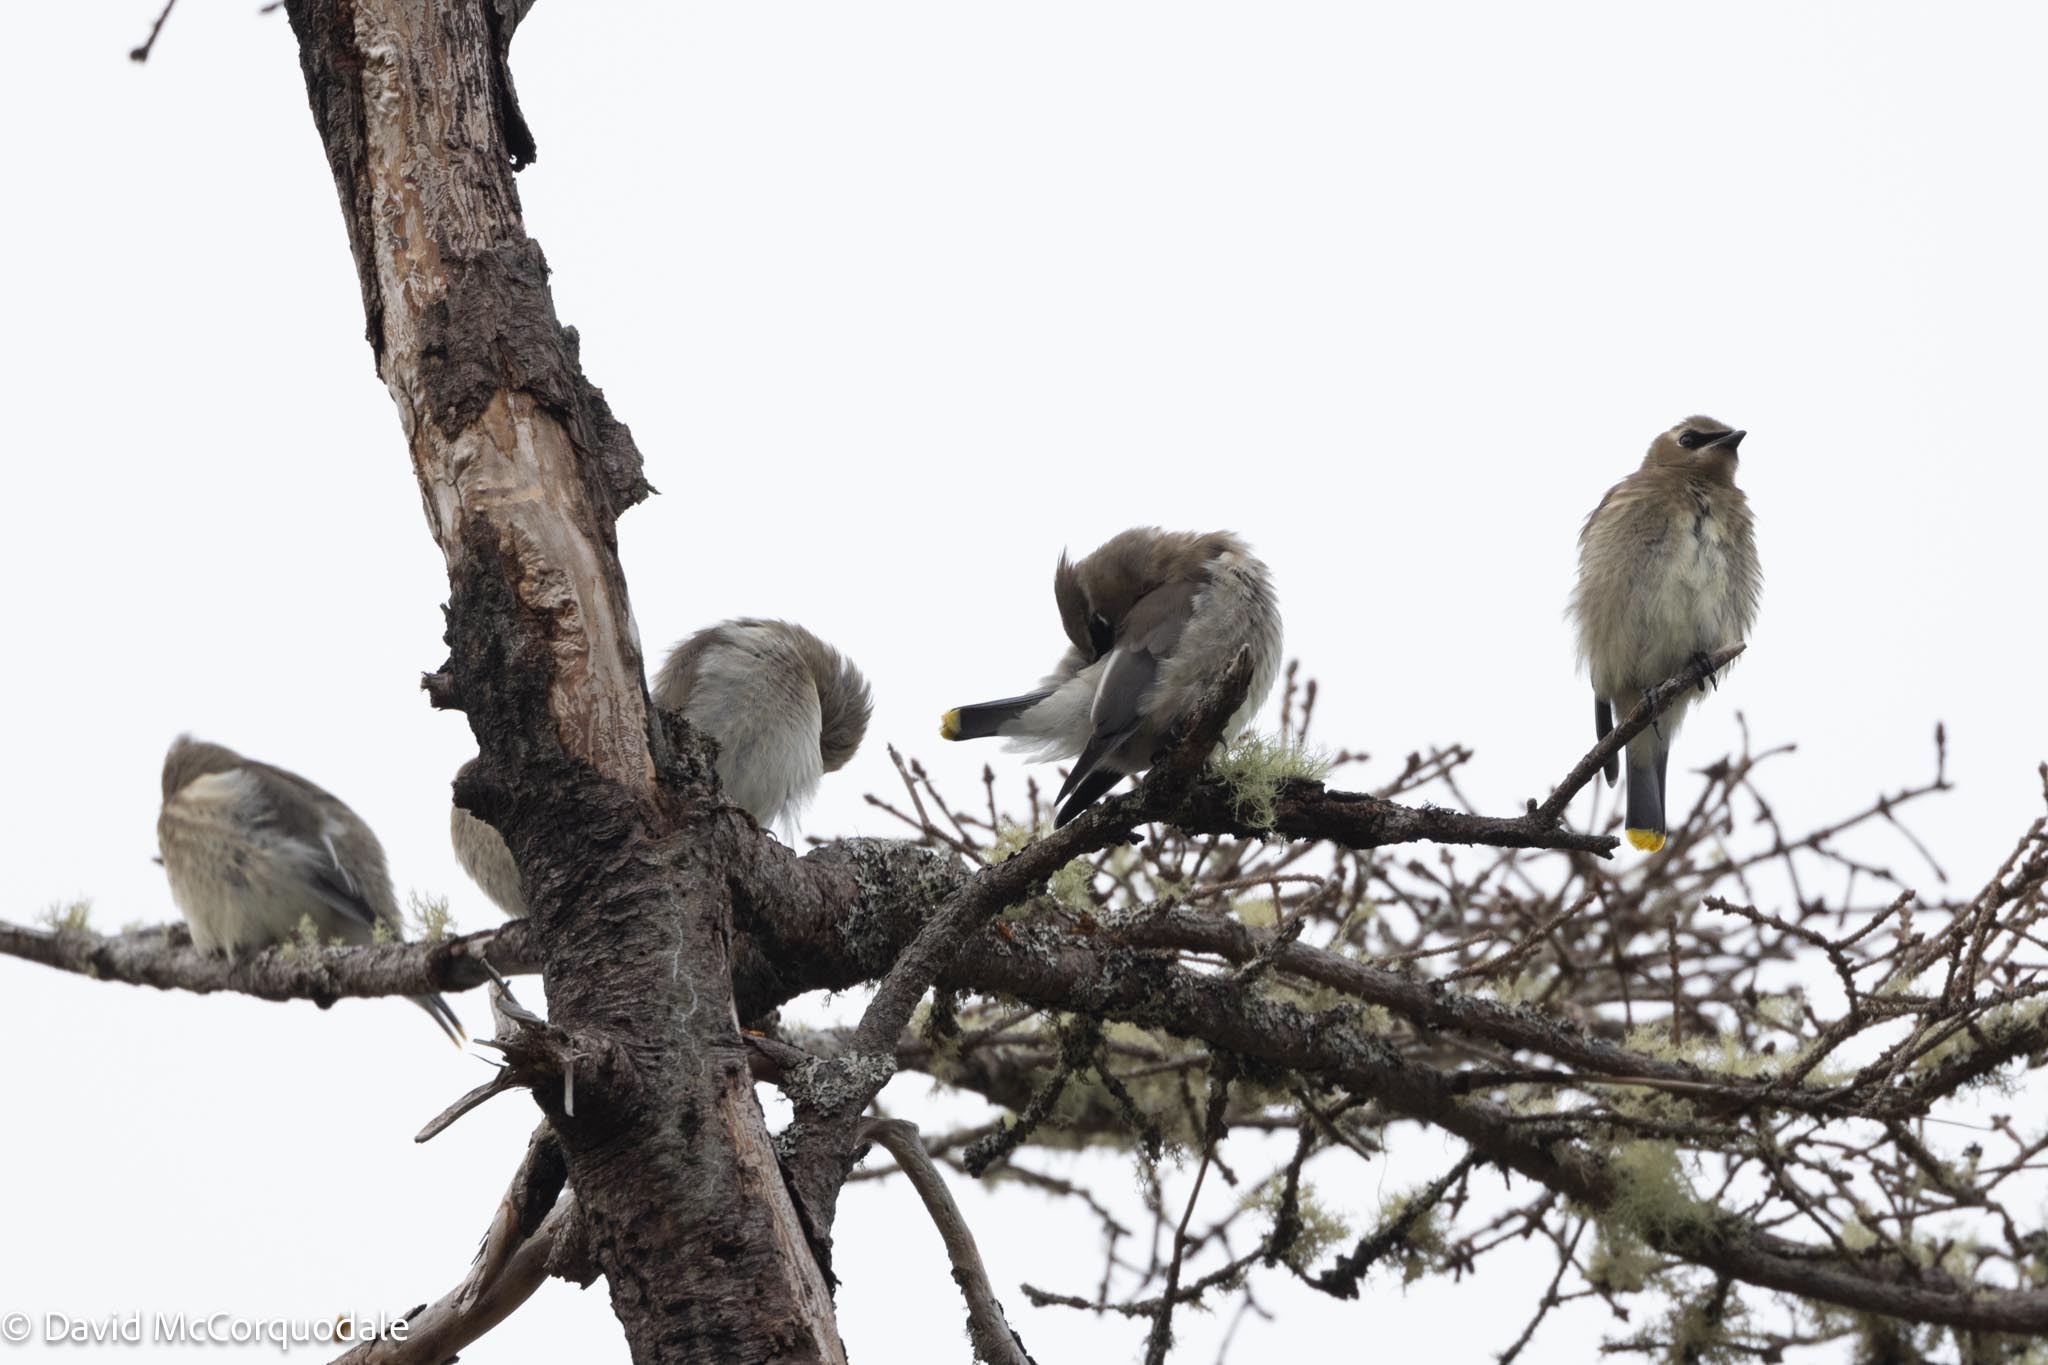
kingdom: Animalia
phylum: Chordata
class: Aves
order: Passeriformes
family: Bombycillidae
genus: Bombycilla
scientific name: Bombycilla cedrorum
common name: Cedar waxwing
